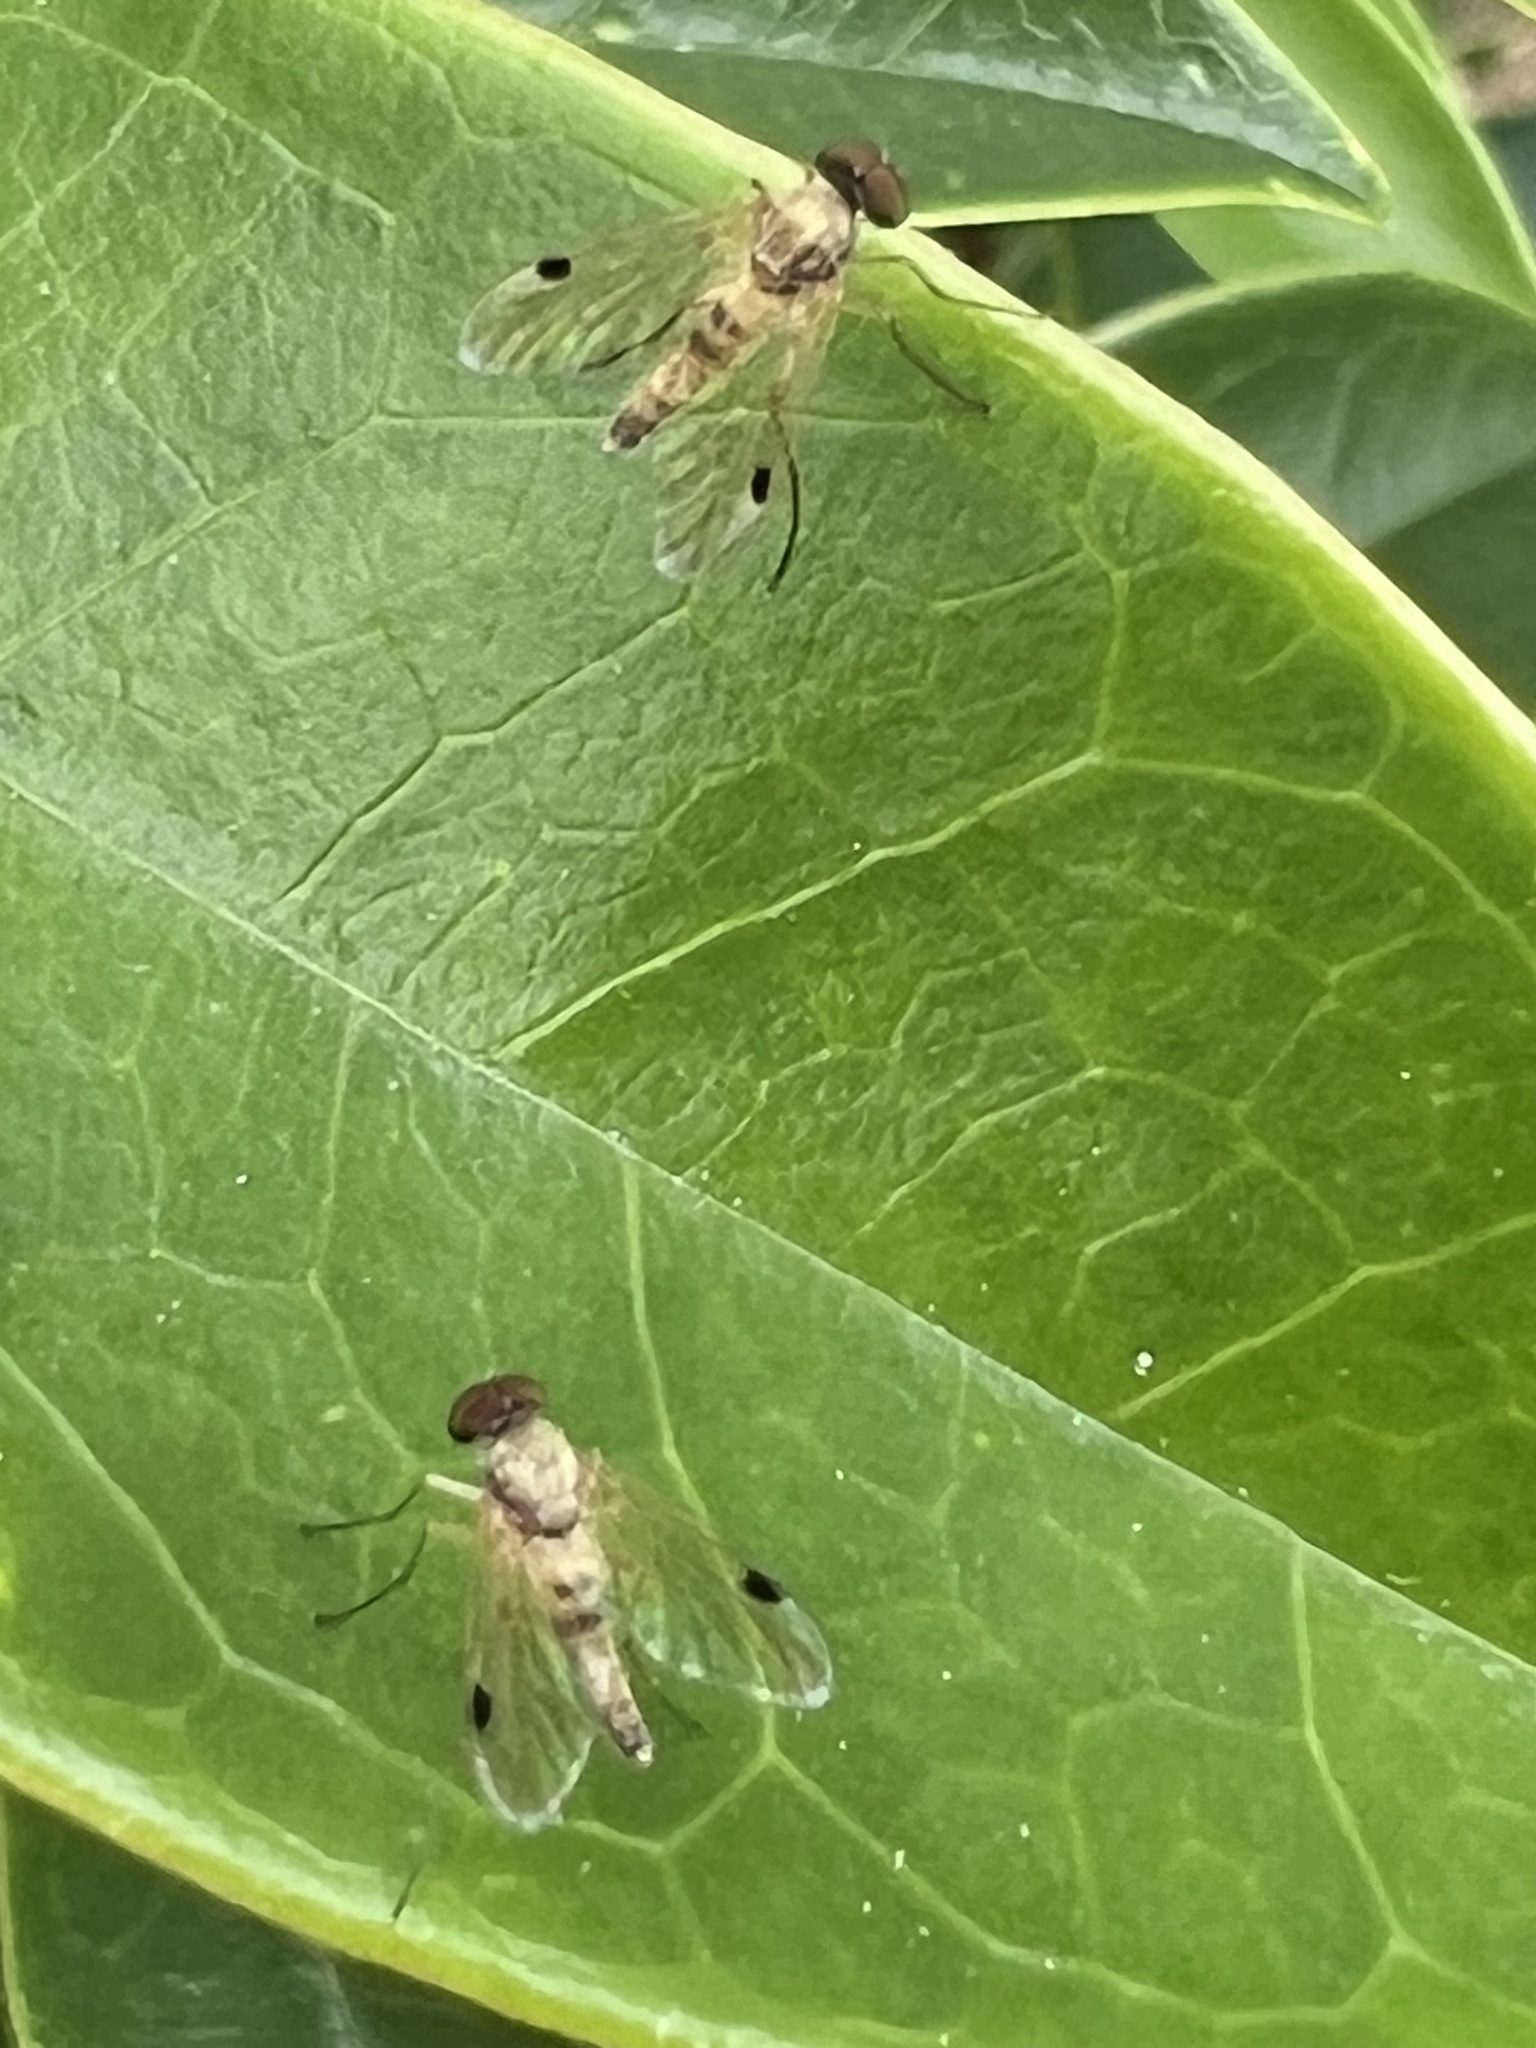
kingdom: Animalia
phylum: Arthropoda
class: Insecta
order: Diptera
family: Rhagionidae
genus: Chrysopilus
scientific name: Chrysopilus modestus
